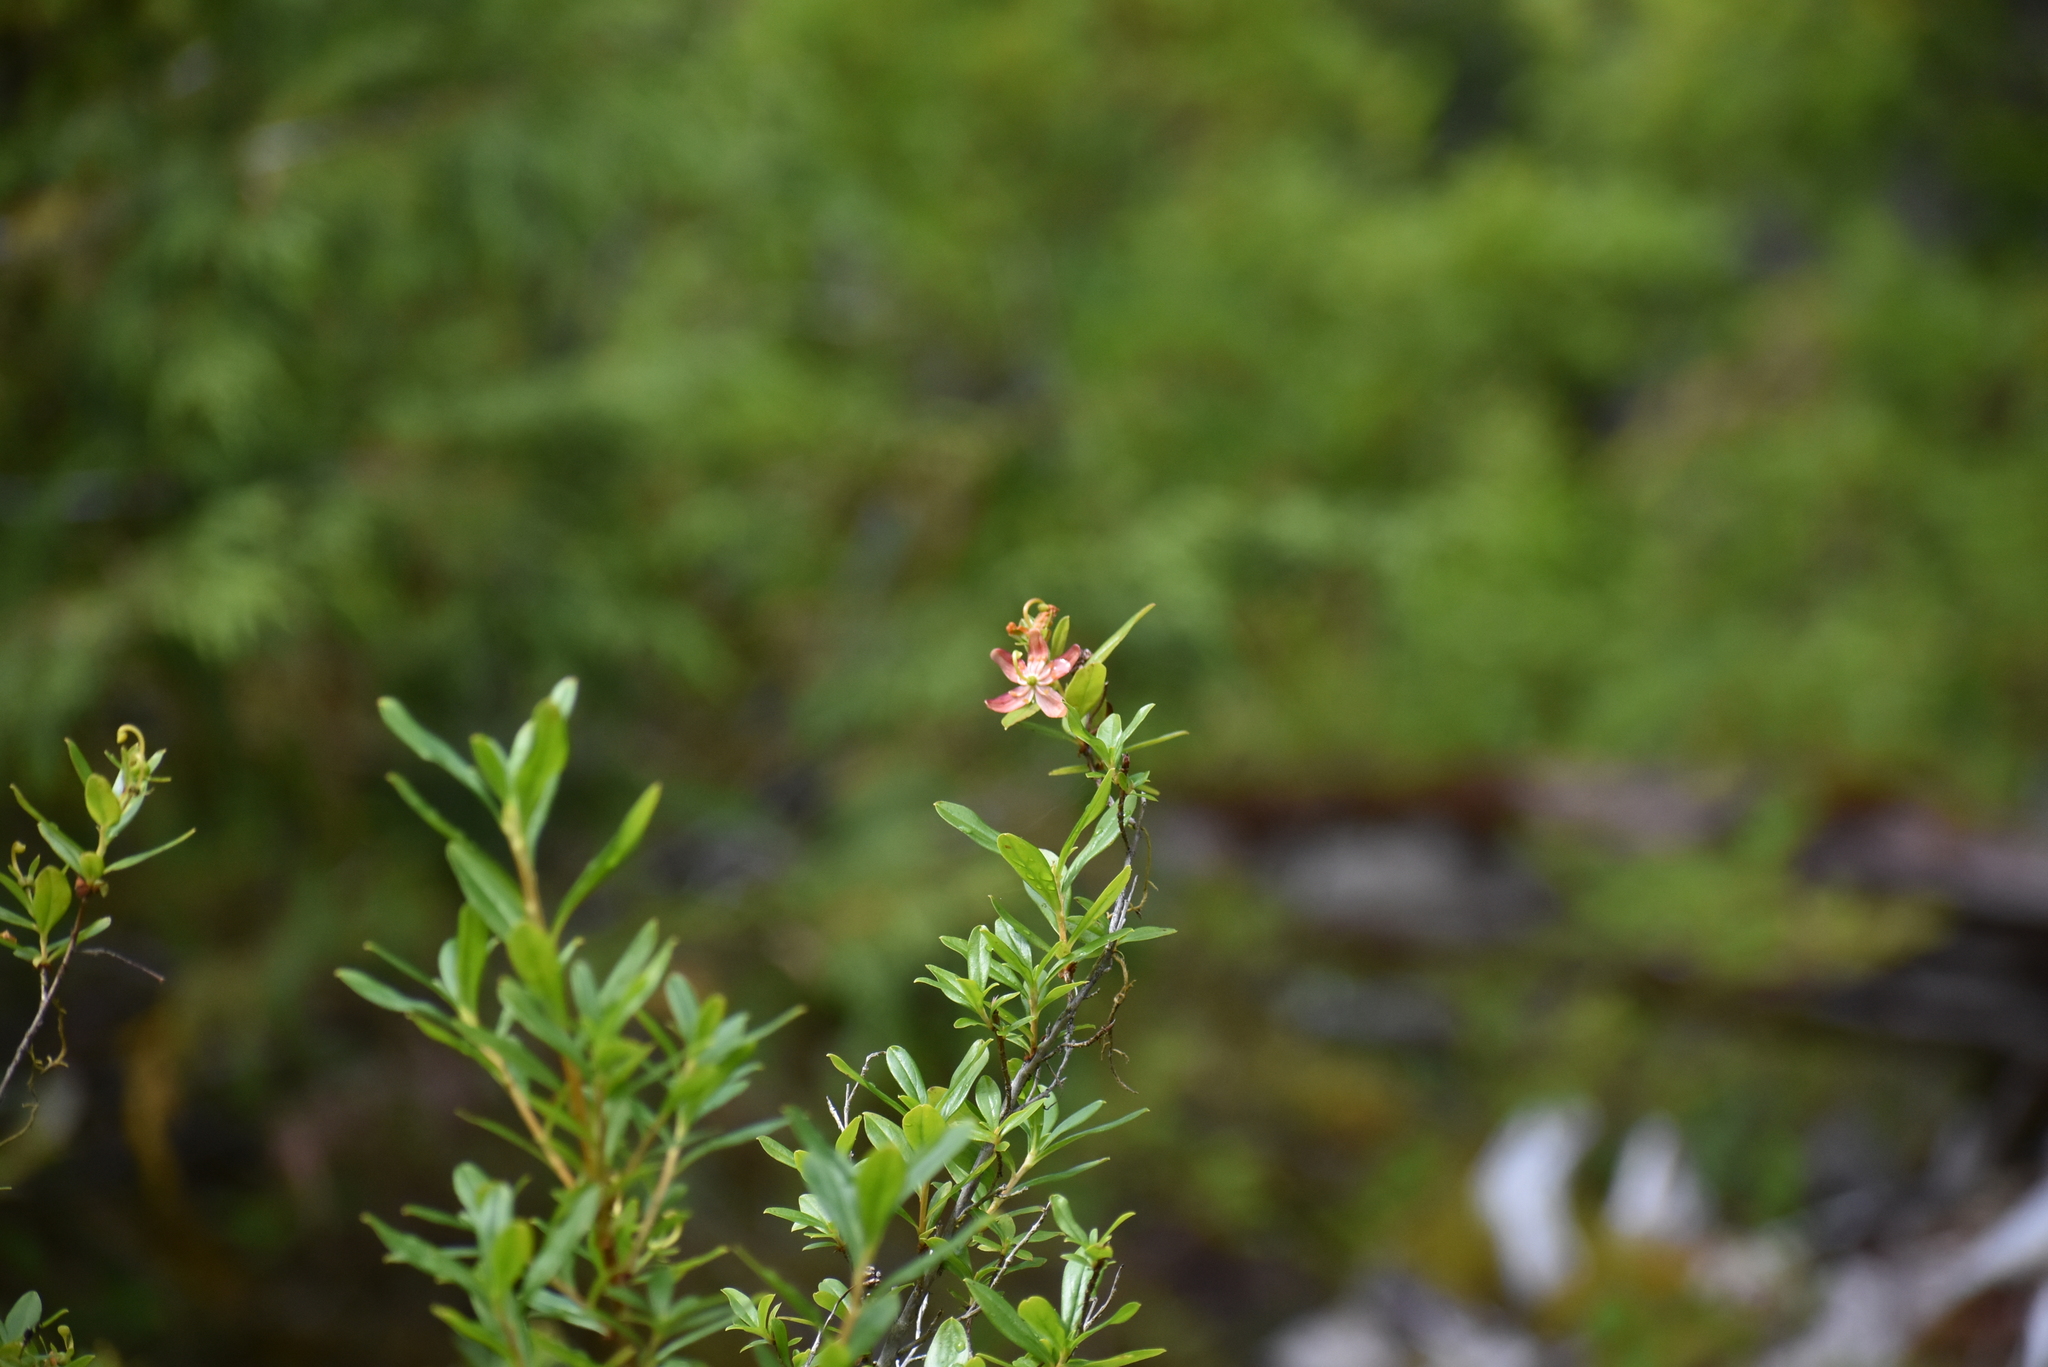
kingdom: Plantae
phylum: Tracheophyta
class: Magnoliopsida
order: Ericales
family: Ericaceae
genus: Elliottia
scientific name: Elliottia pyroliflora
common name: Copperbush
